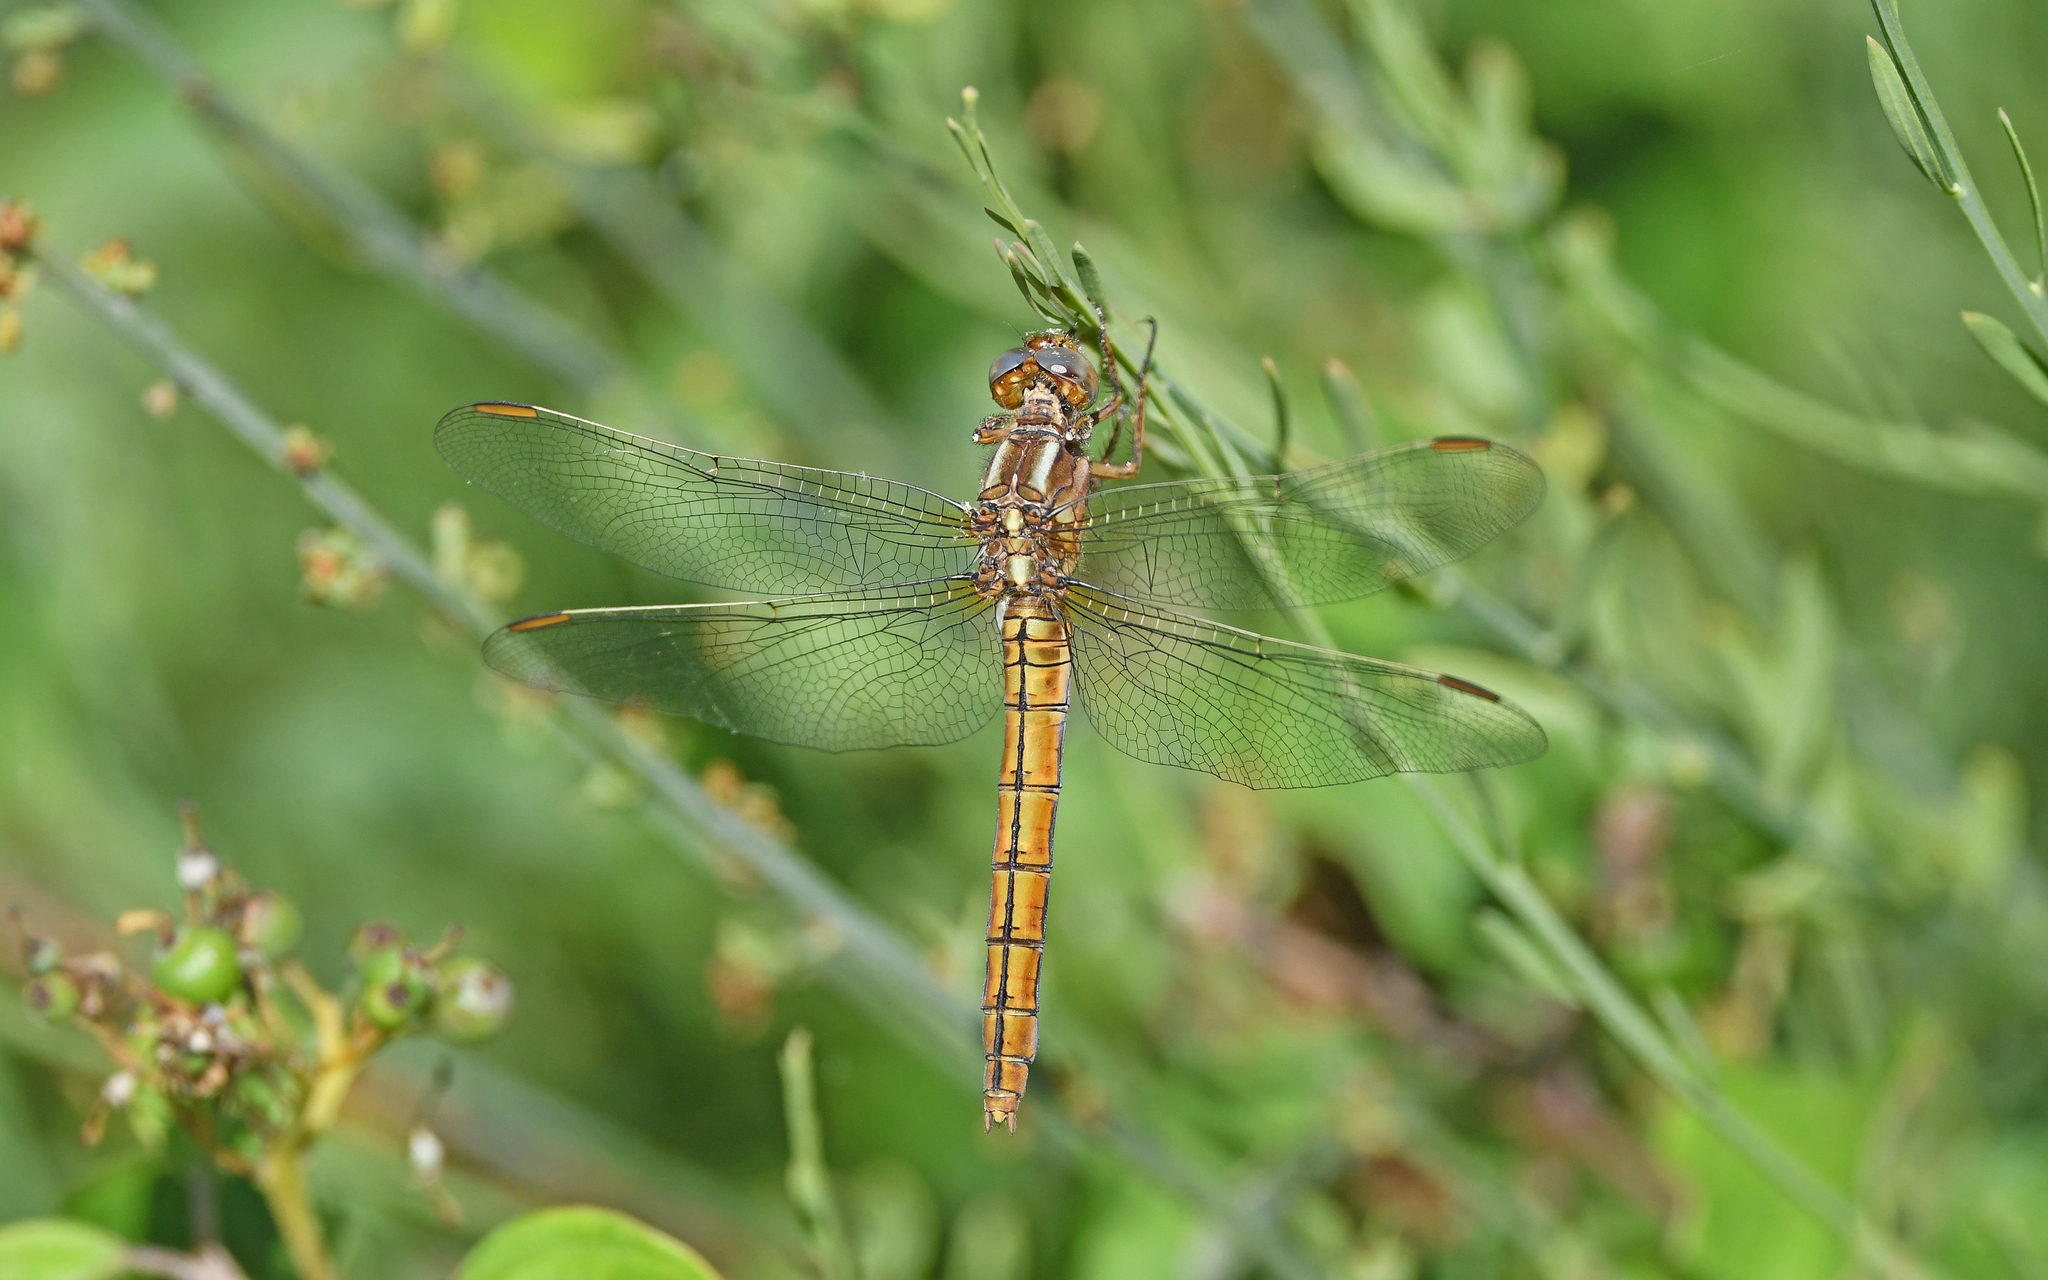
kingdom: Animalia
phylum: Arthropoda
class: Insecta
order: Odonata
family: Libellulidae
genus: Orthetrum
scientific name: Orthetrum coerulescens
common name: Keeled skimmer
